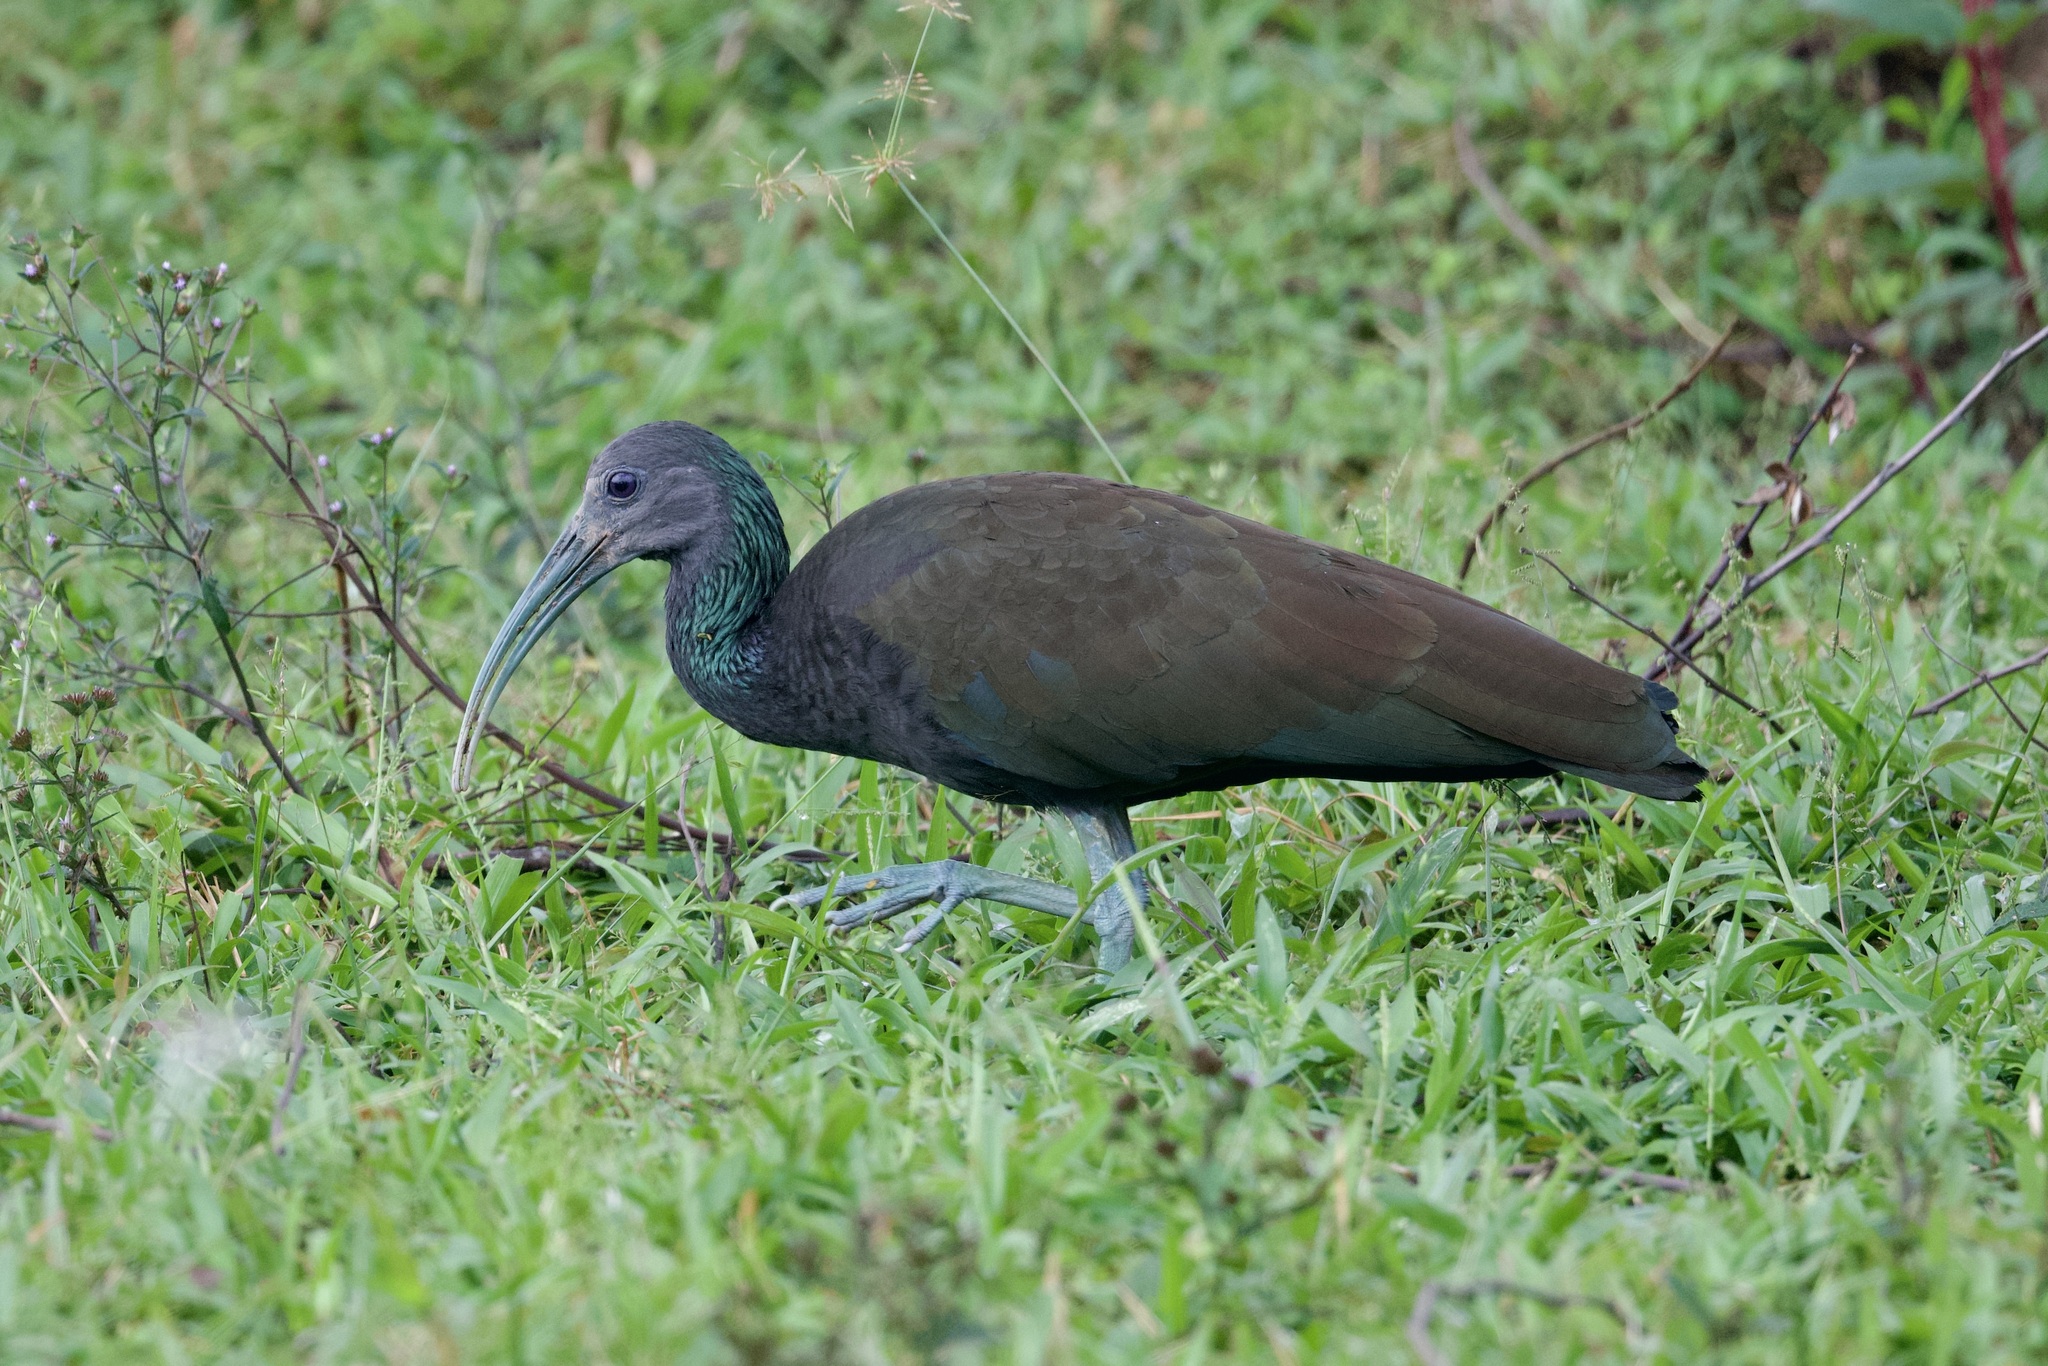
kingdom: Animalia
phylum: Chordata
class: Aves
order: Pelecaniformes
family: Threskiornithidae
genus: Mesembrinibis
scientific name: Mesembrinibis cayennensis
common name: Green ibis
